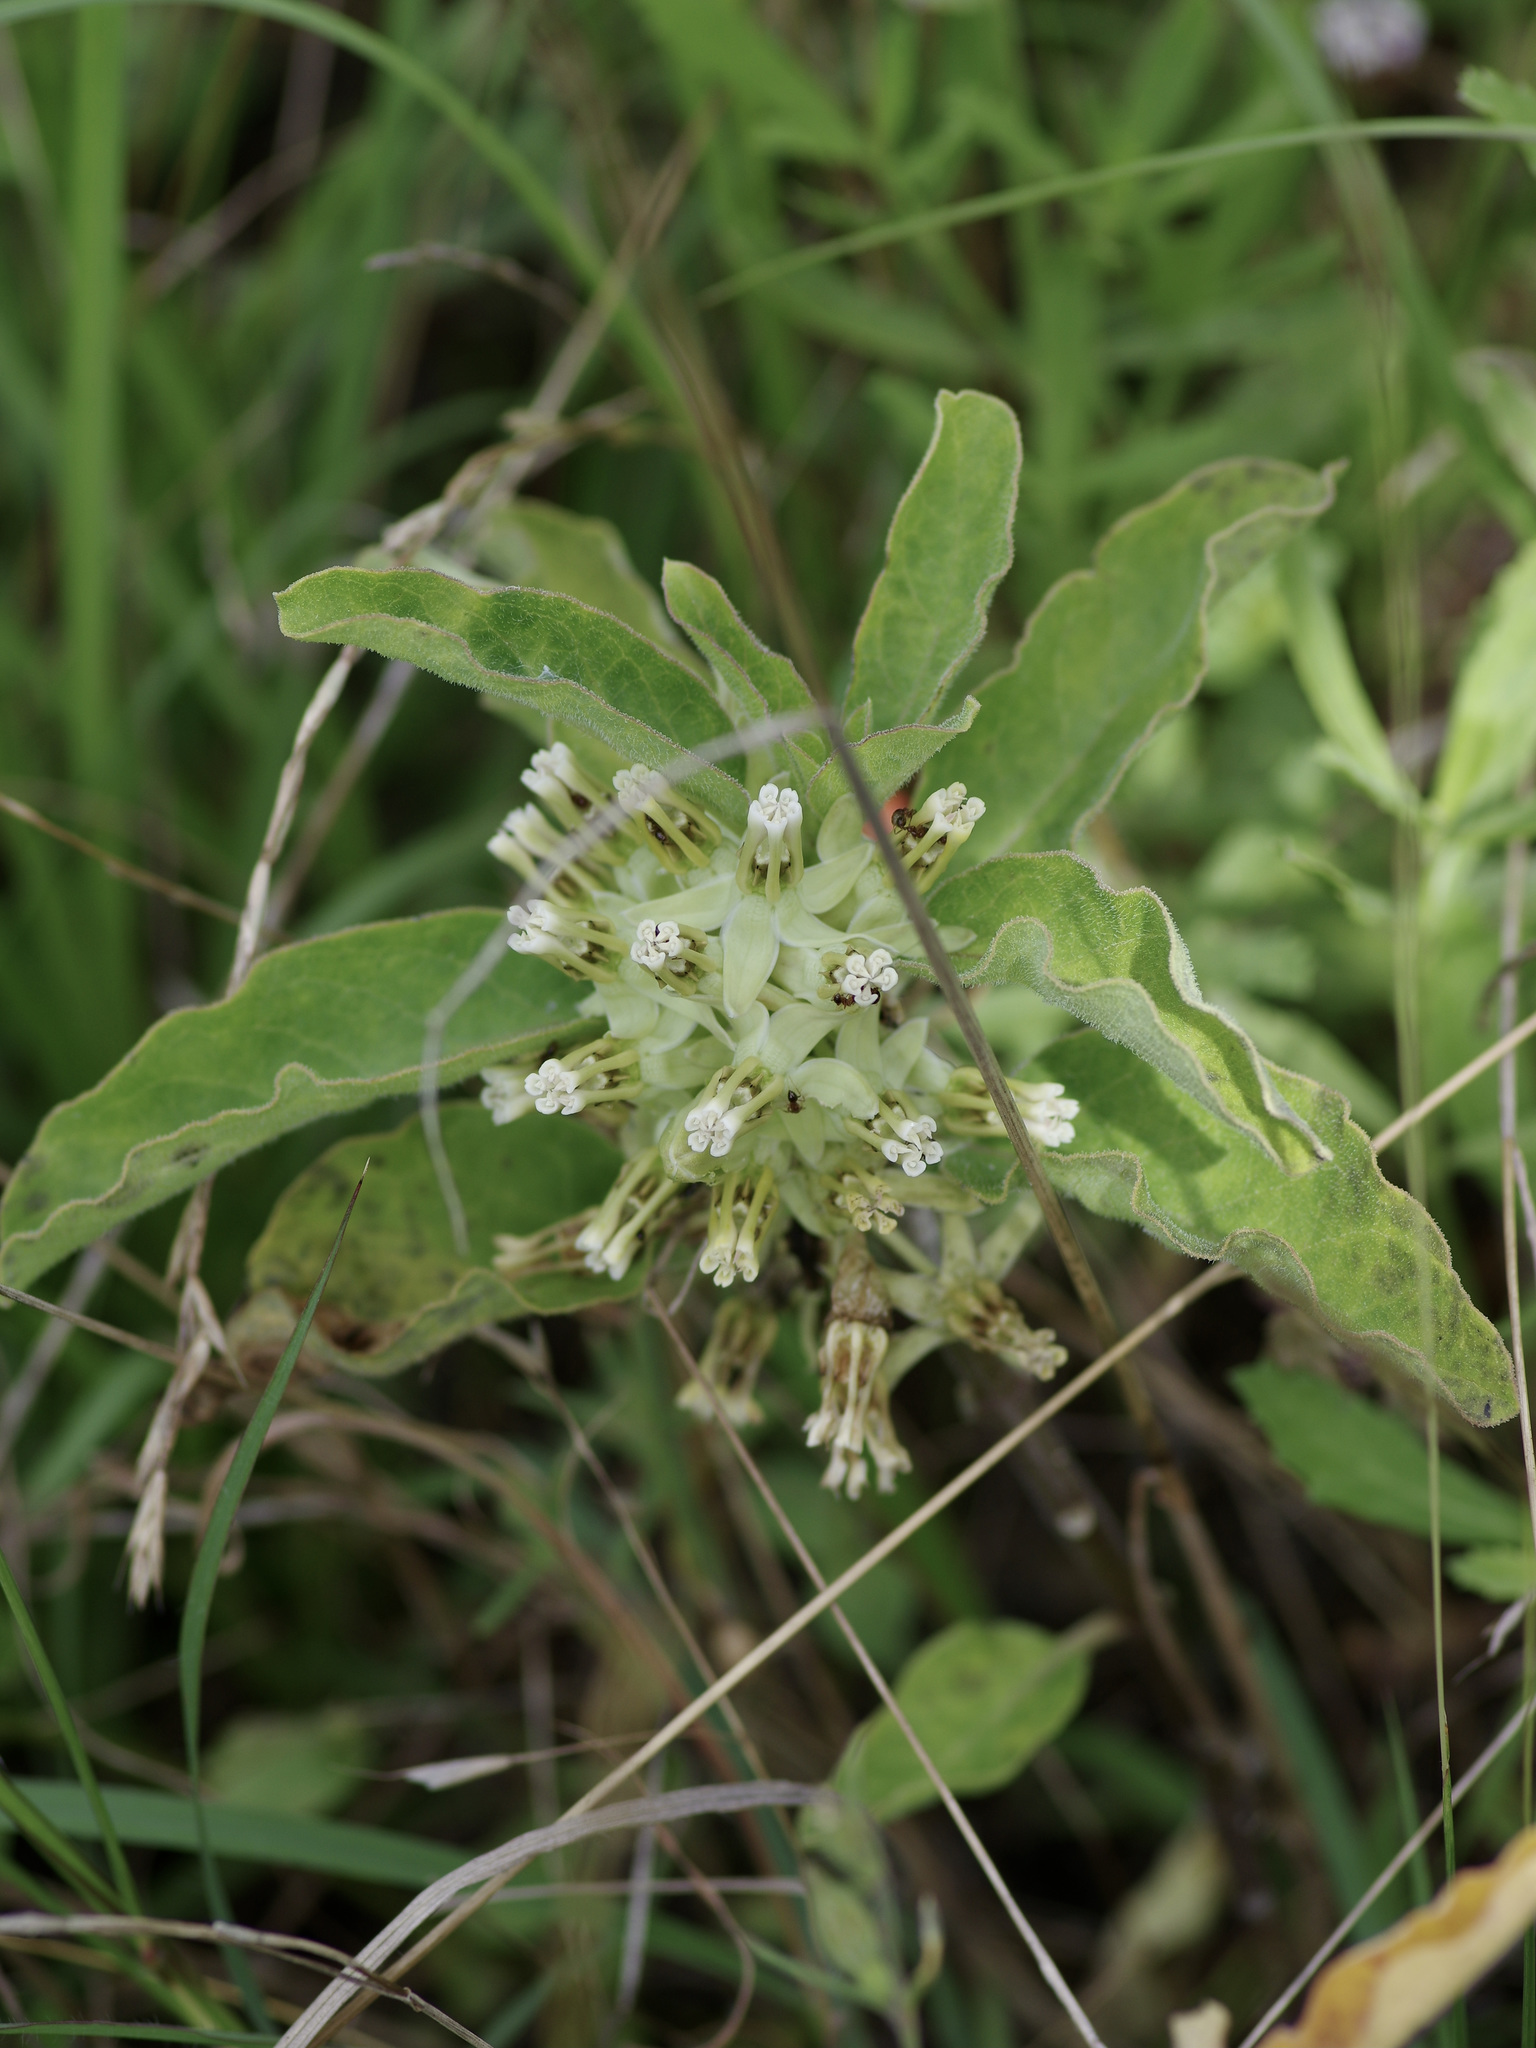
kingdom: Plantae
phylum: Tracheophyta
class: Magnoliopsida
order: Gentianales
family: Apocynaceae
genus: Asclepias
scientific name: Asclepias oenotheroides
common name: Zizotes milkweed
